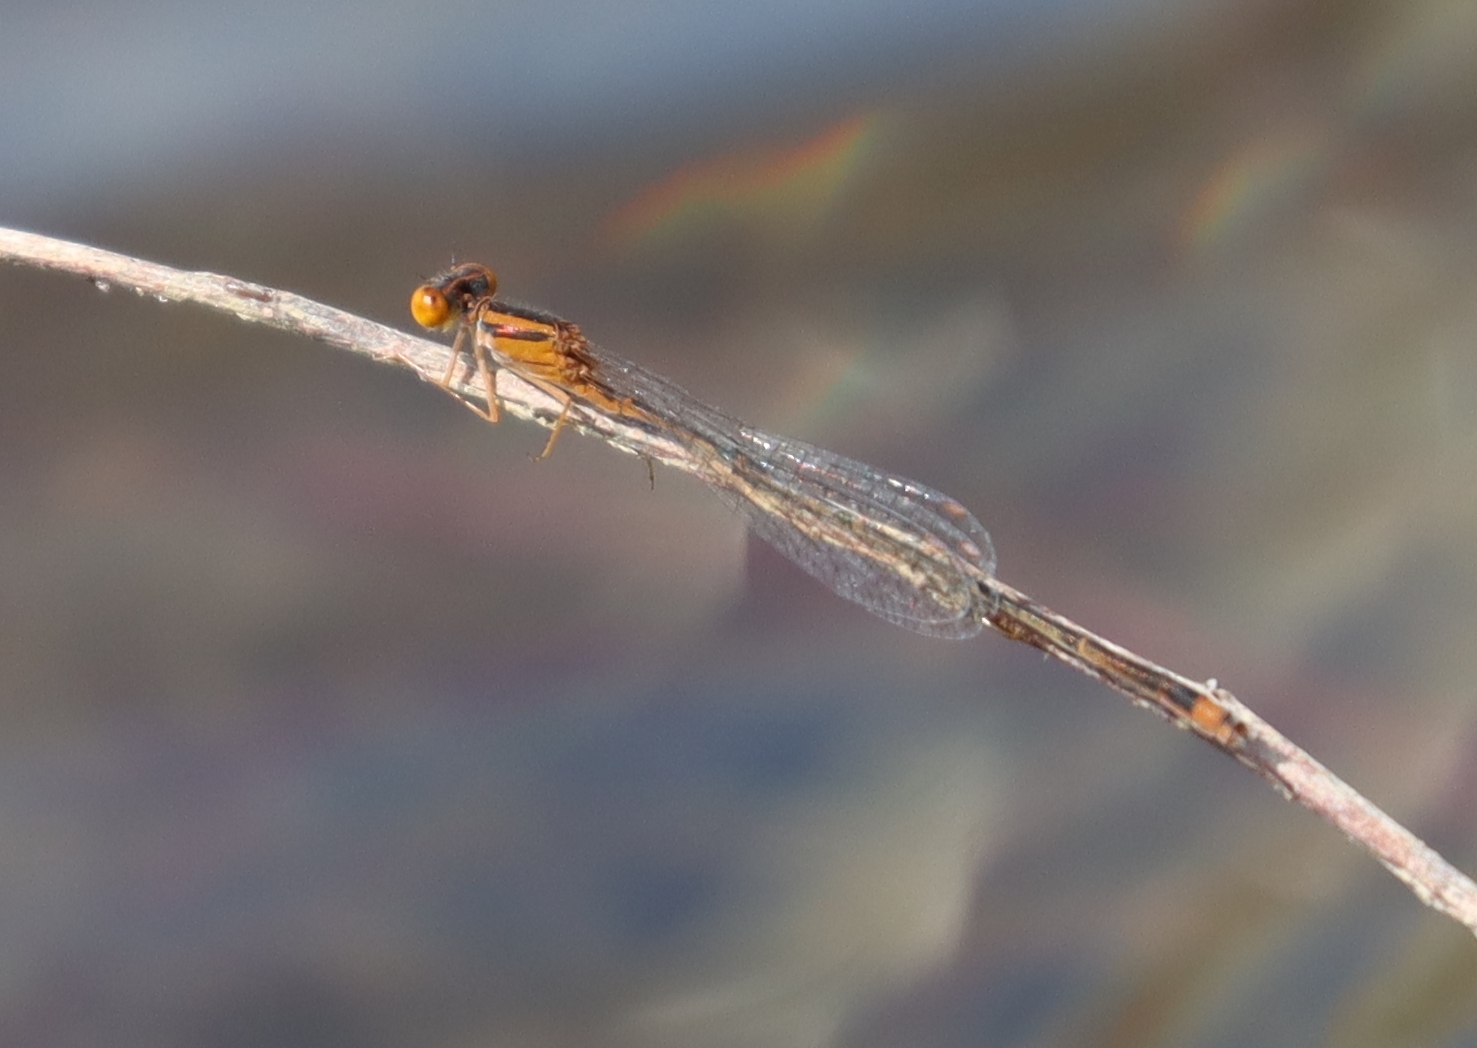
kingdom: Animalia
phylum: Arthropoda
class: Insecta
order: Odonata
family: Coenagrionidae
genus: Enallagma
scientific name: Enallagma signatum
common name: Orange bluet
